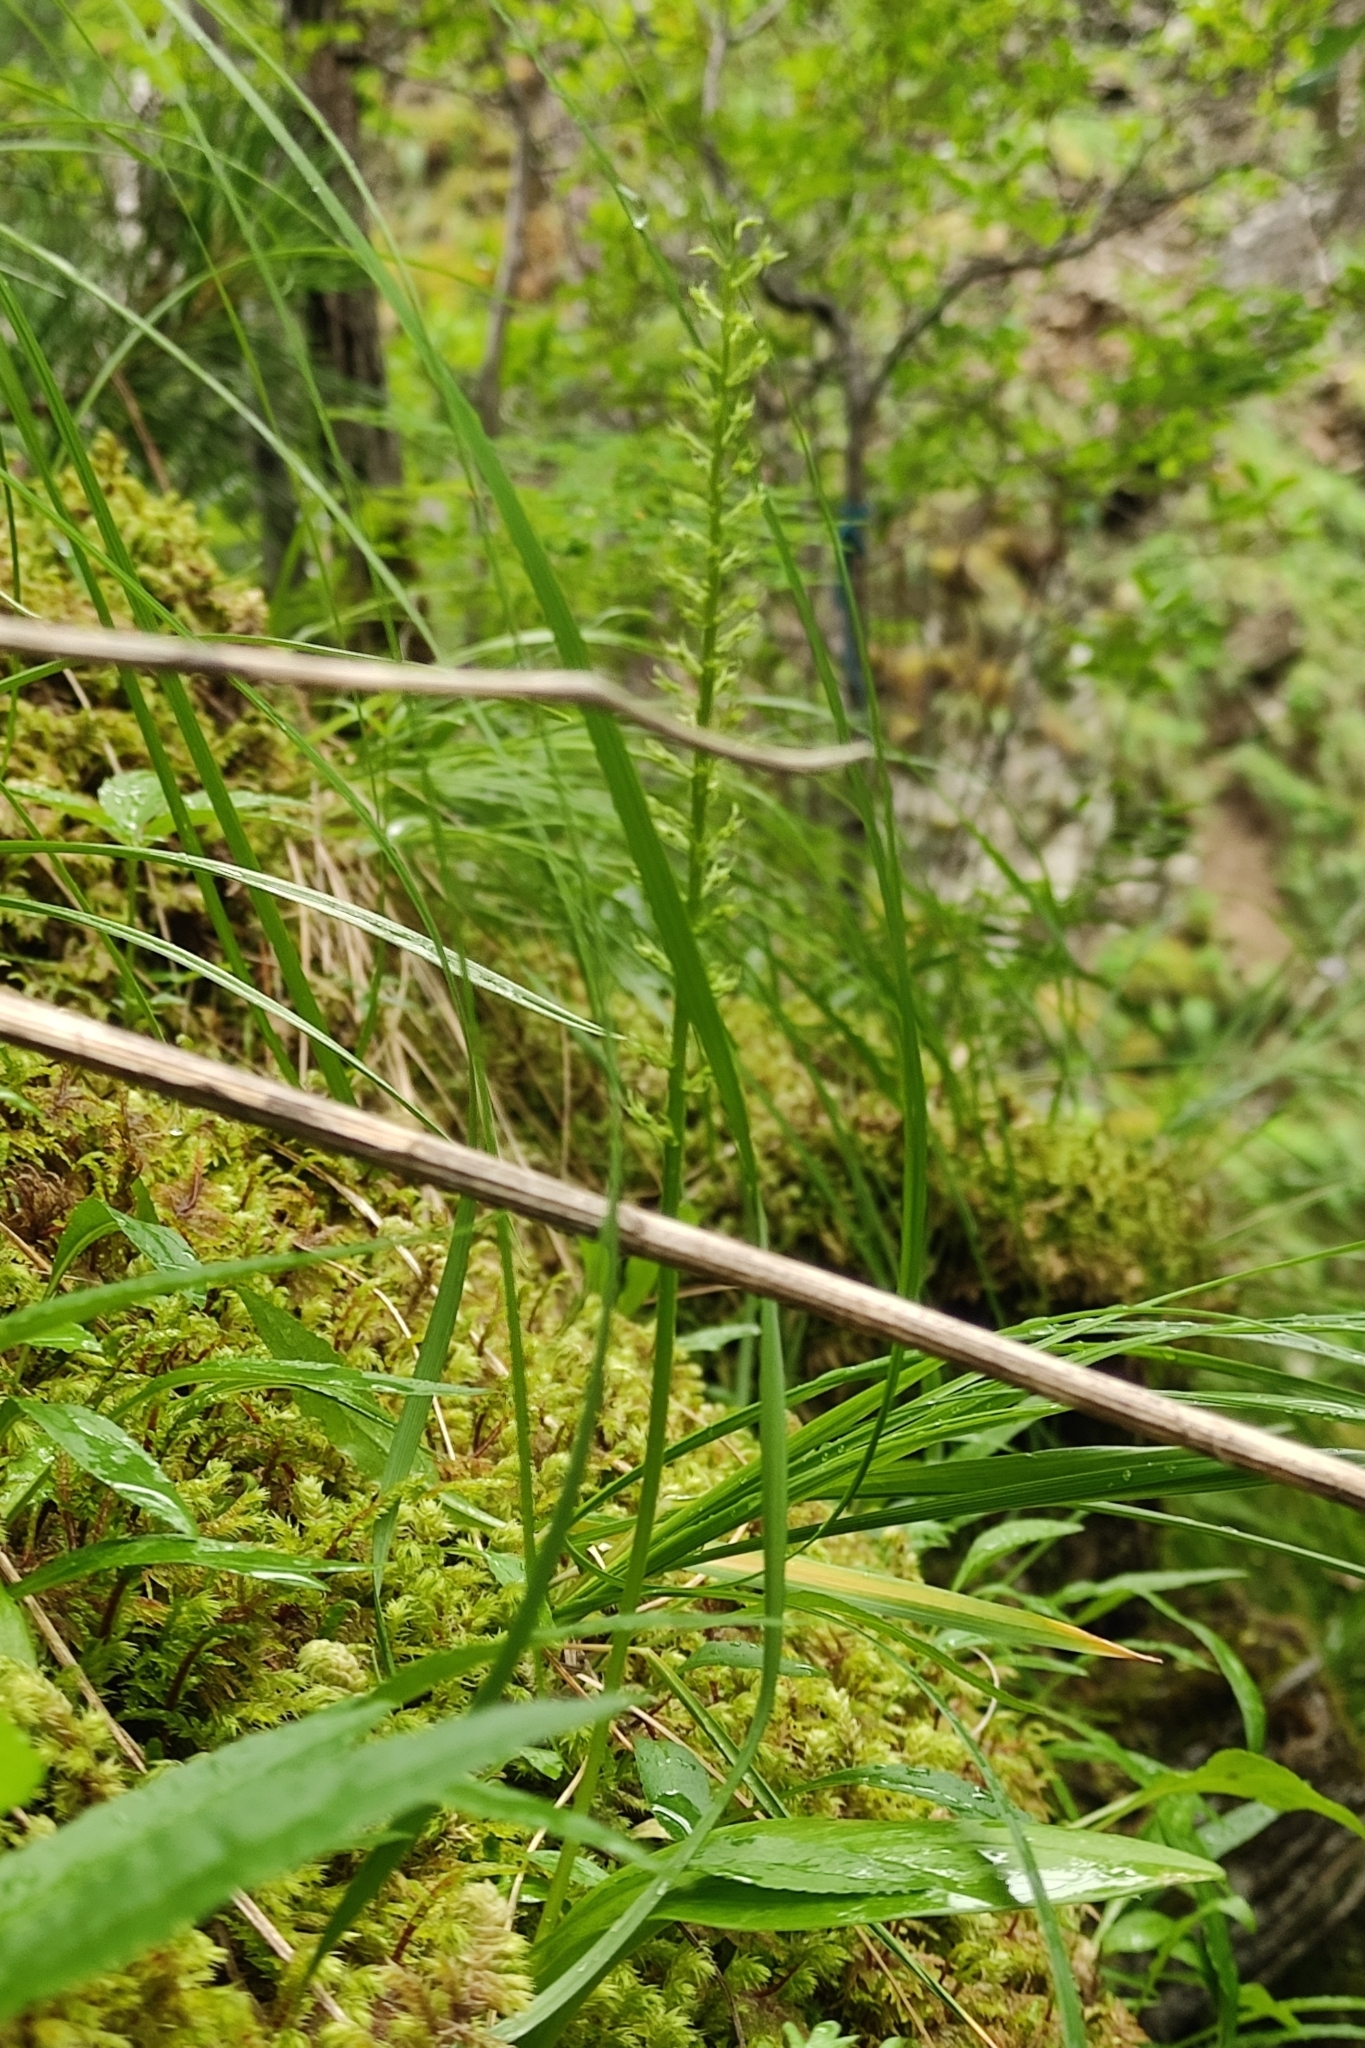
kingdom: Plantae
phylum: Tracheophyta
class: Liliopsida
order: Asparagales
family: Orchidaceae
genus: Malaxis
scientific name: Malaxis monophyllos
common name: White adder's-mouth
